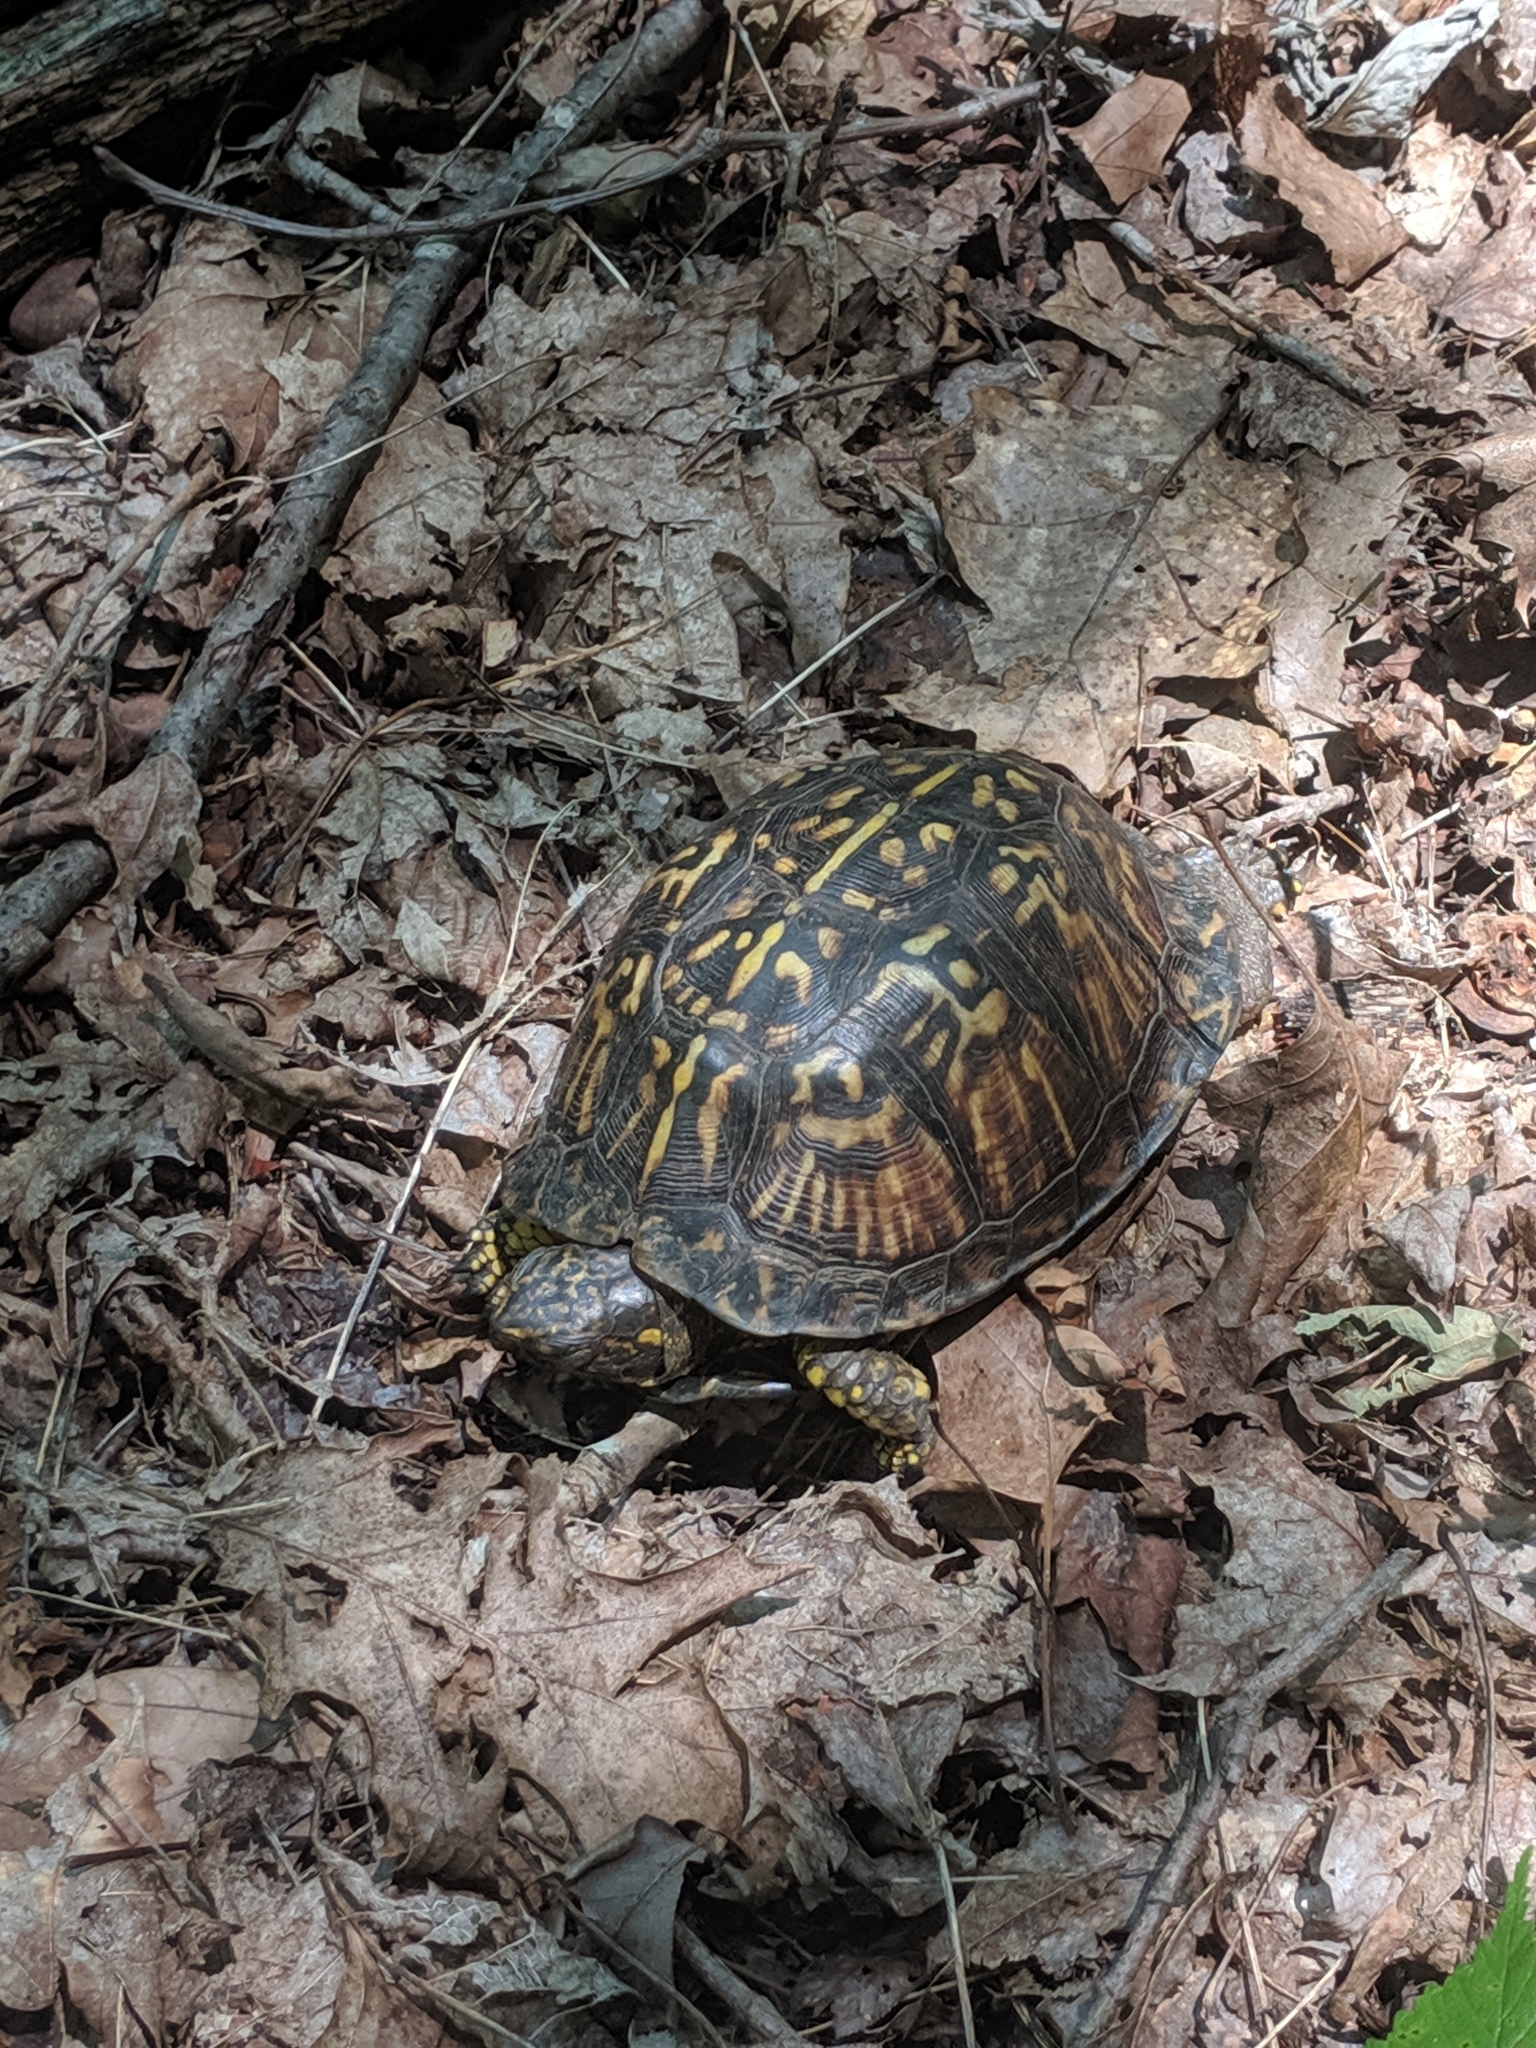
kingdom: Animalia
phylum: Chordata
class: Testudines
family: Emydidae
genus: Terrapene
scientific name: Terrapene carolina
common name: Common box turtle
